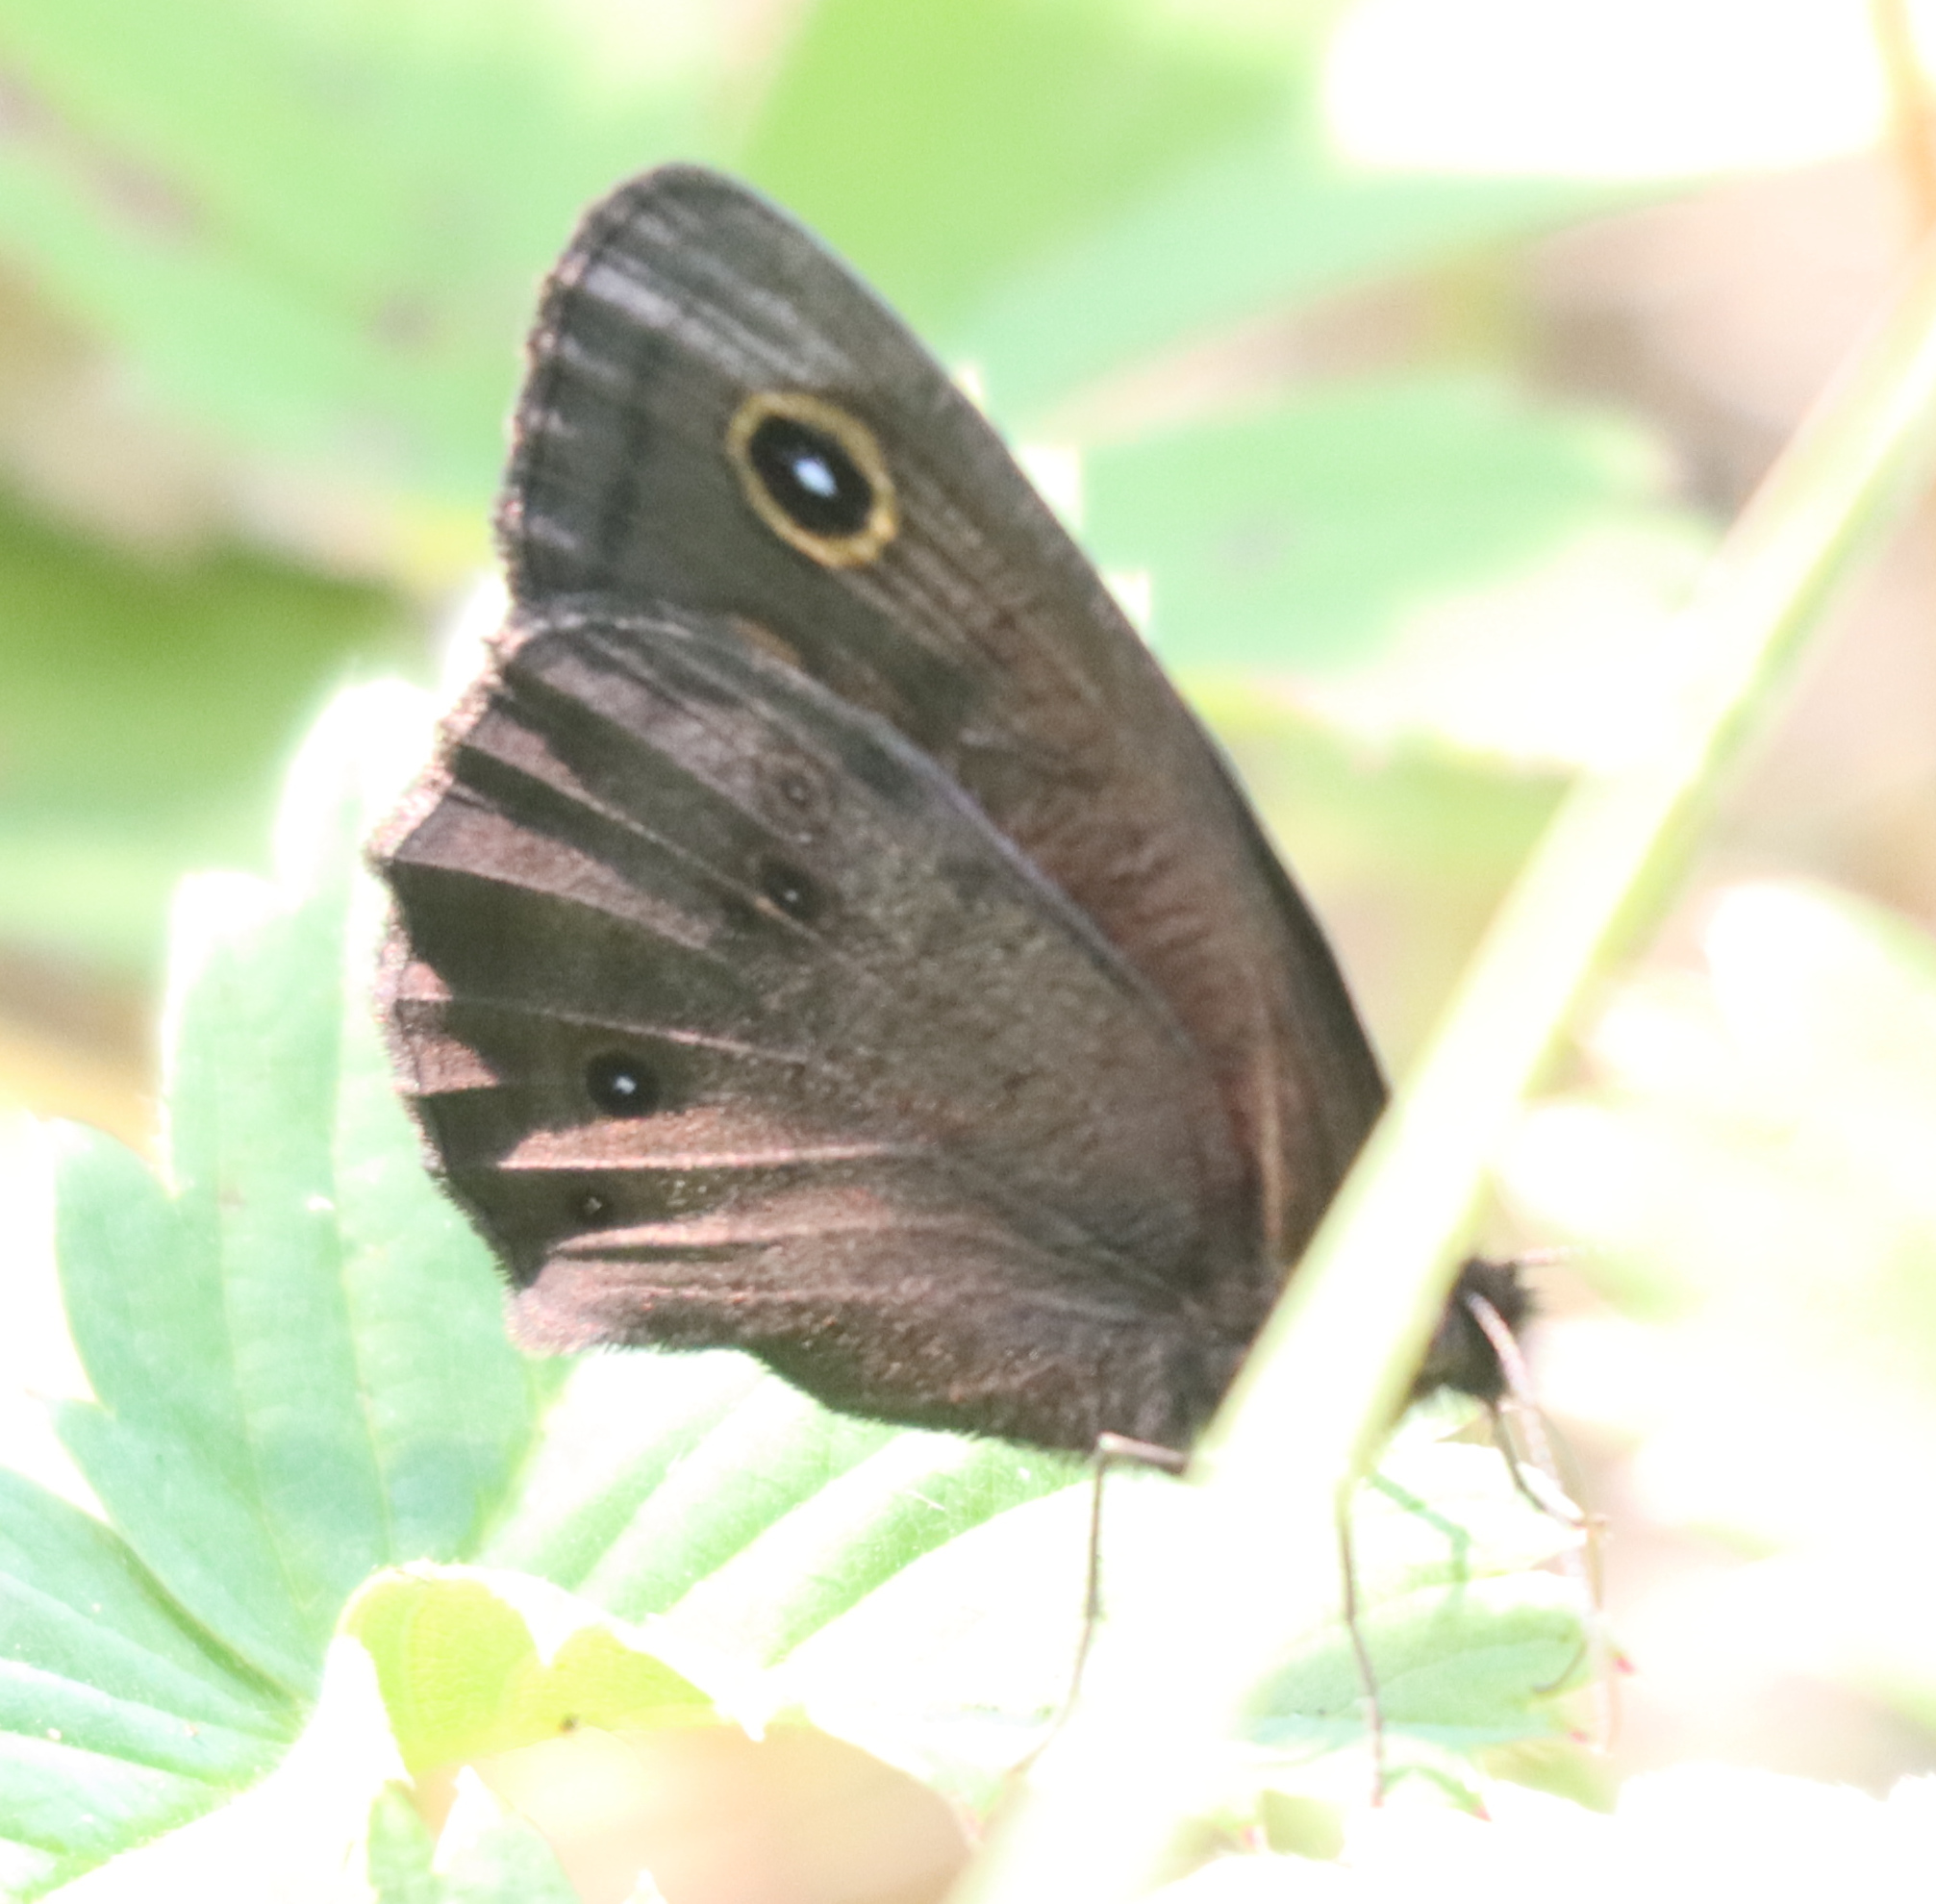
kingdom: Animalia
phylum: Arthropoda
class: Insecta
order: Lepidoptera
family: Nymphalidae
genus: Cercyonis
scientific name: Cercyonis pegala
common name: Common wood-nymph
